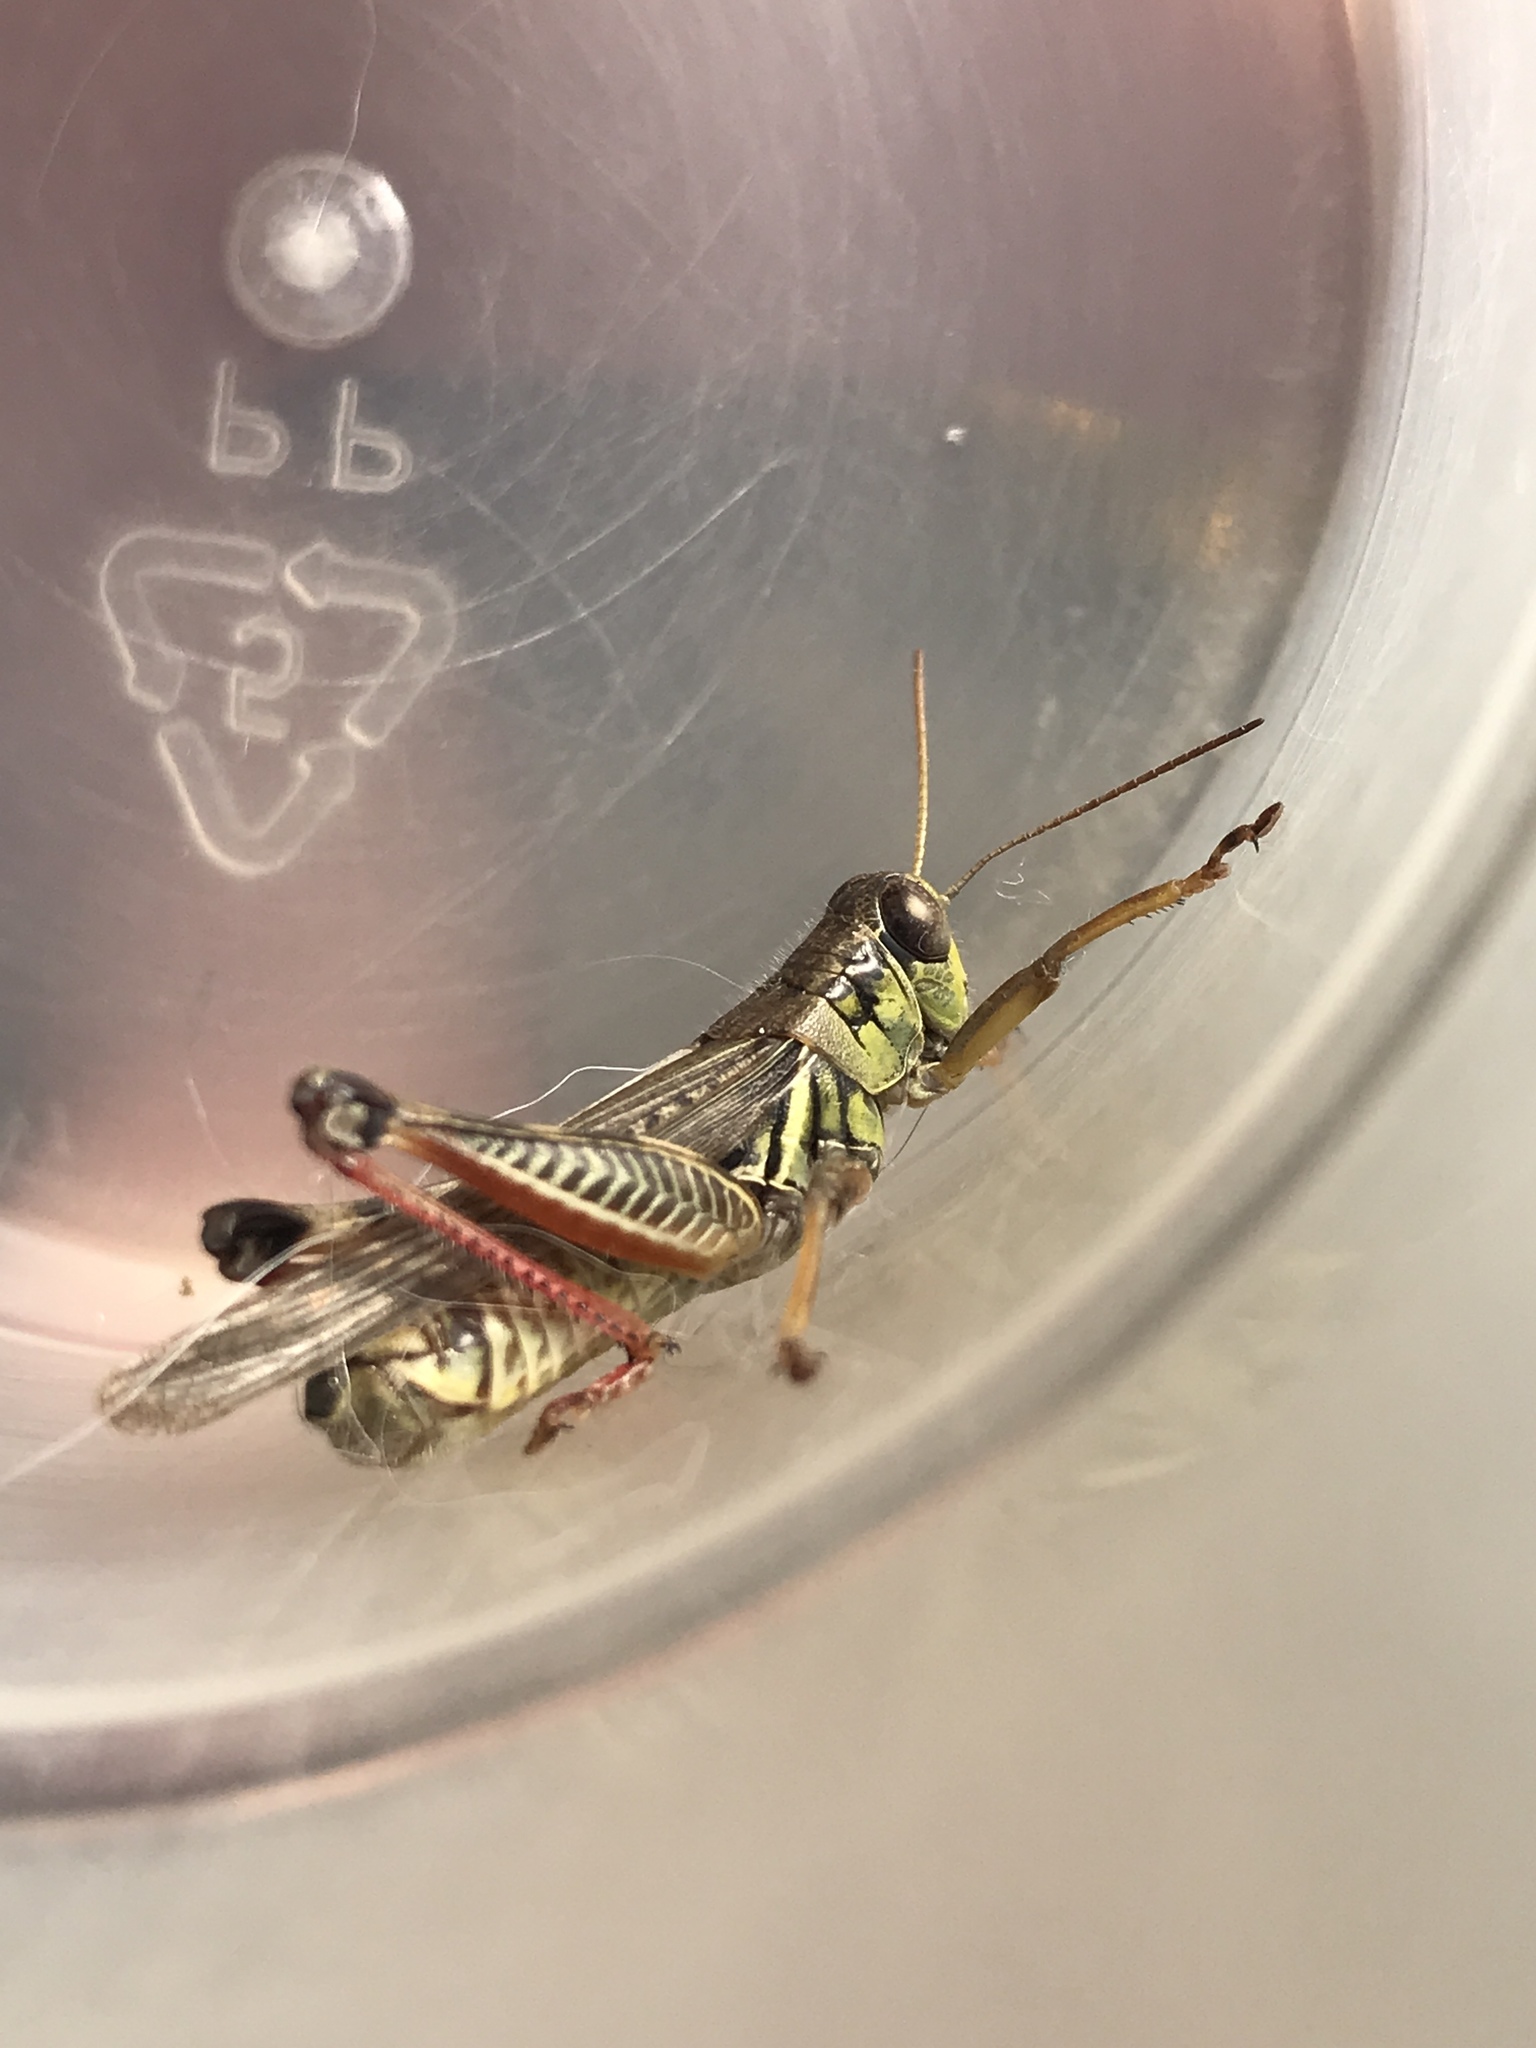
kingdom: Animalia
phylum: Arthropoda
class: Insecta
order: Orthoptera
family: Acrididae
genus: Melanoplus
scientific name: Melanoplus femurrubrum
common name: Red-legged grasshopper
